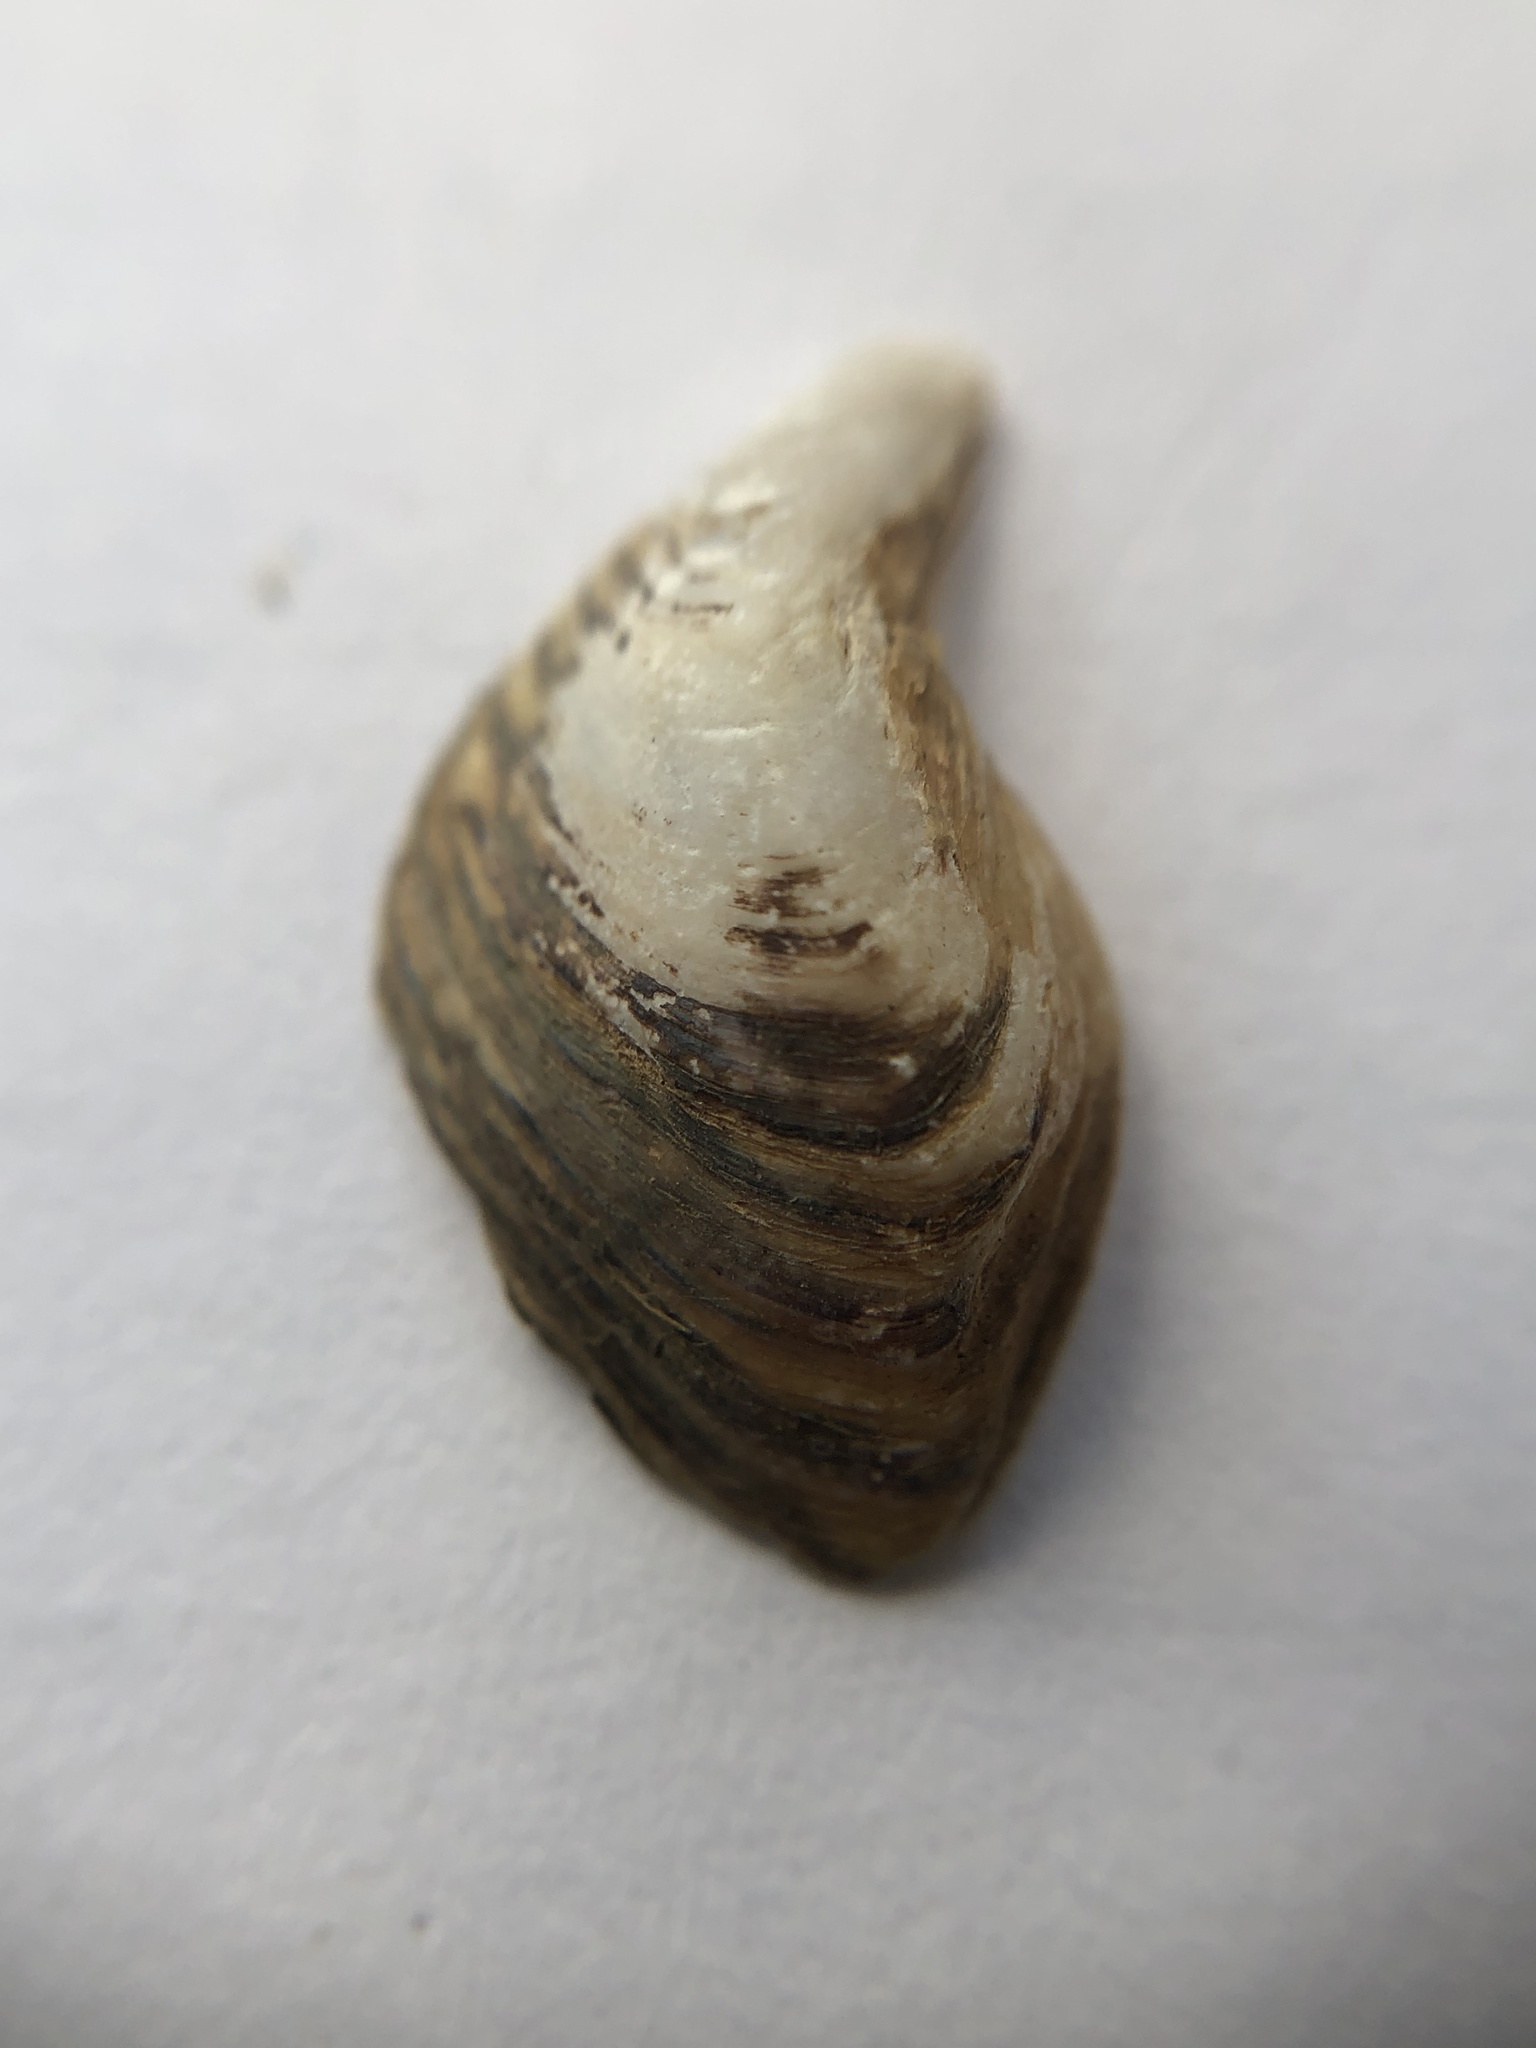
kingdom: Animalia
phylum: Mollusca
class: Bivalvia
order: Myida
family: Dreissenidae
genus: Dreissena
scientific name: Dreissena bugensis
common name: Quagga mussel
